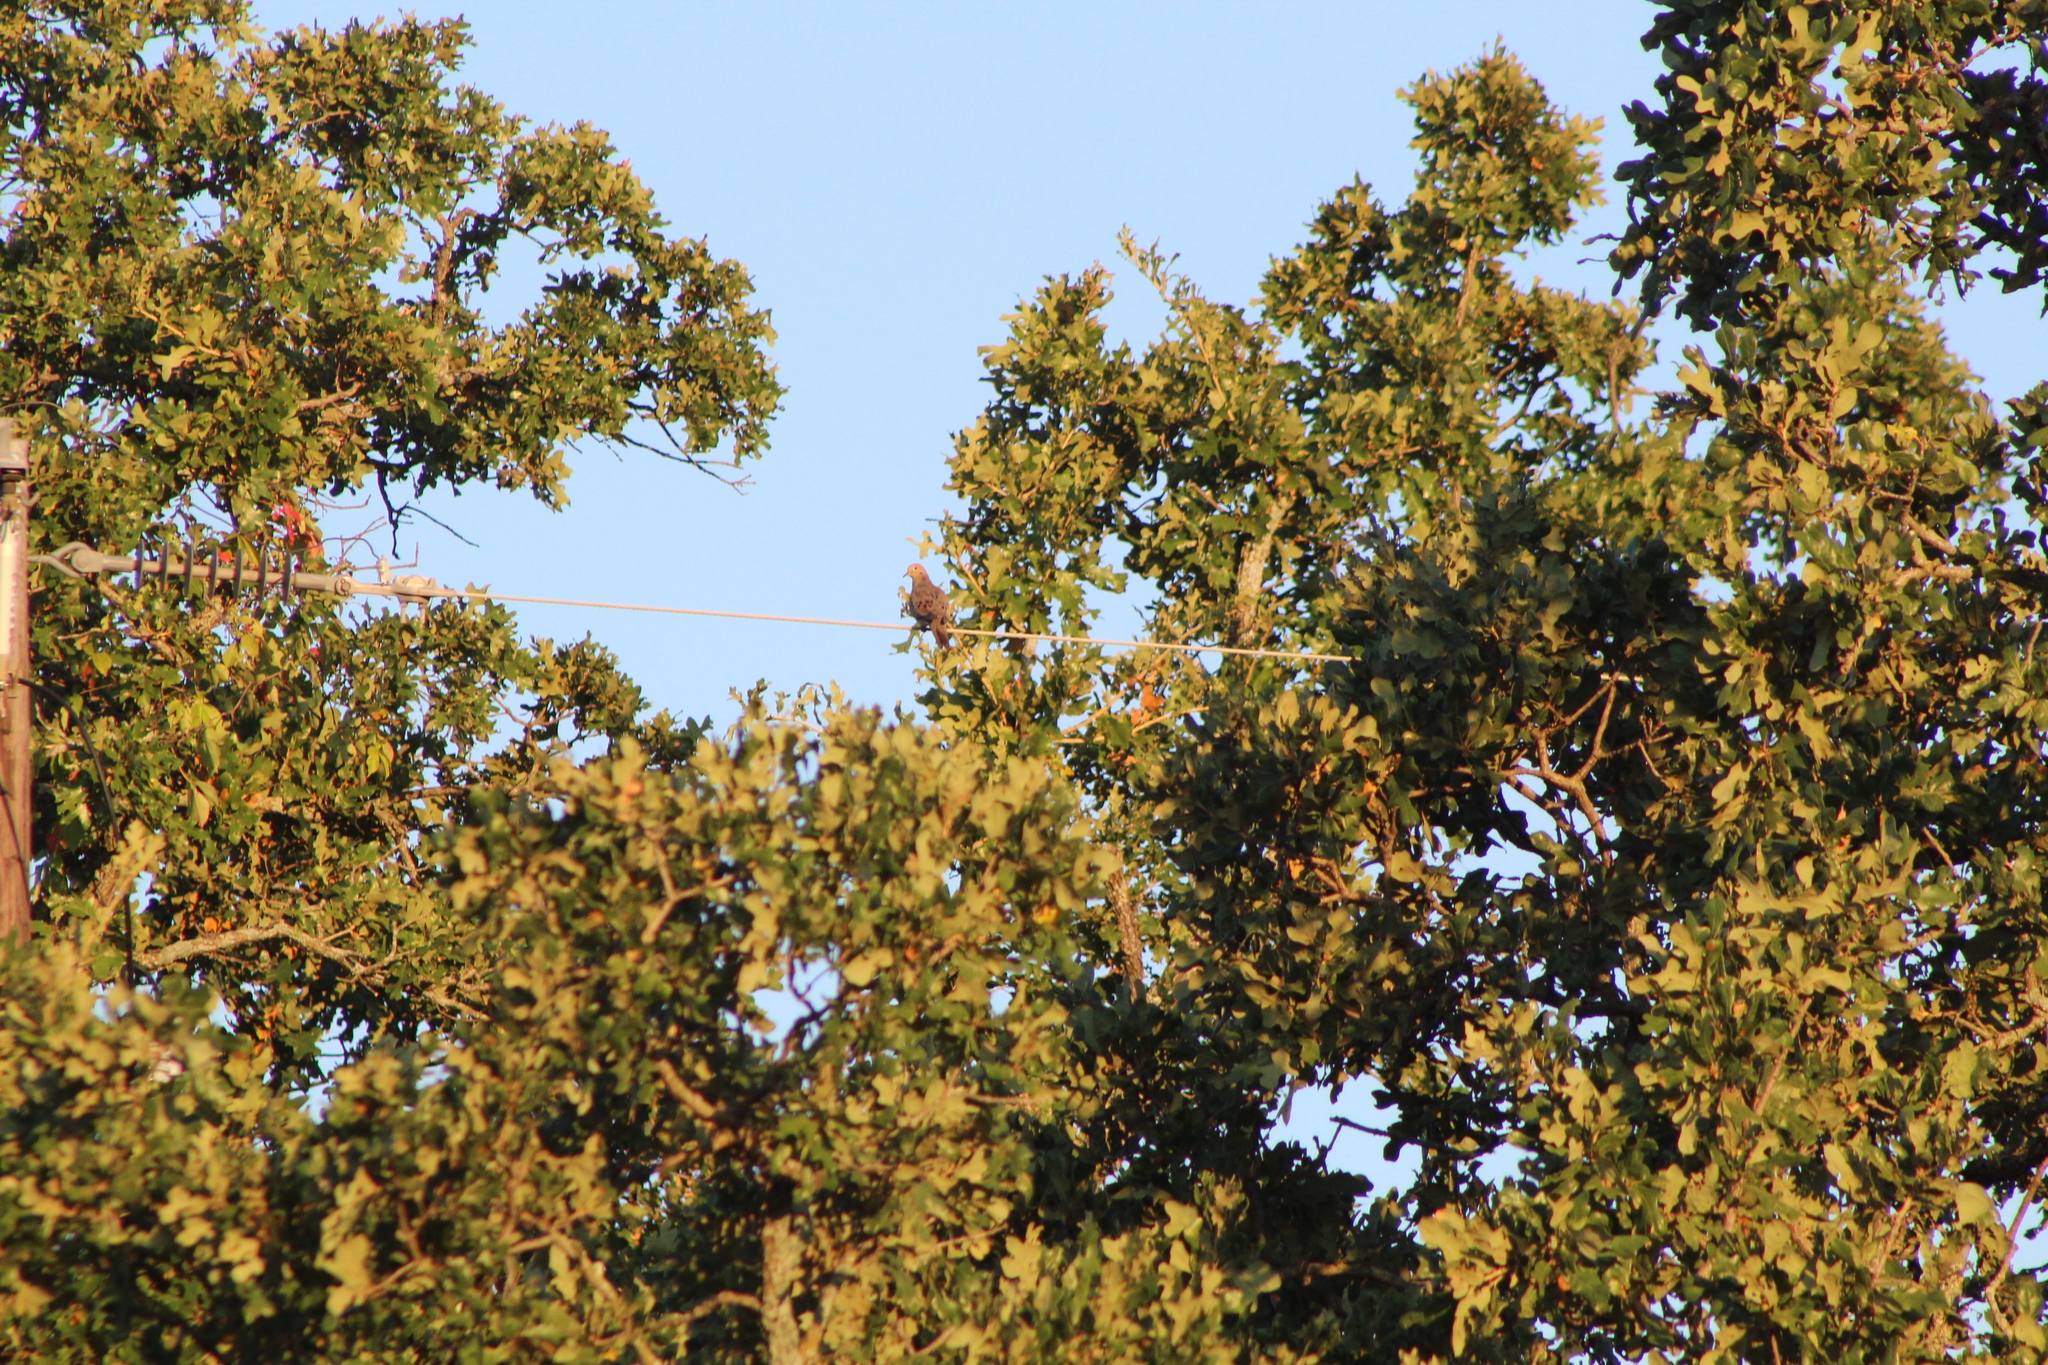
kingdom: Animalia
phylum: Chordata
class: Aves
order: Columbiformes
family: Columbidae
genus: Zenaida
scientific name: Zenaida macroura
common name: Mourning dove
